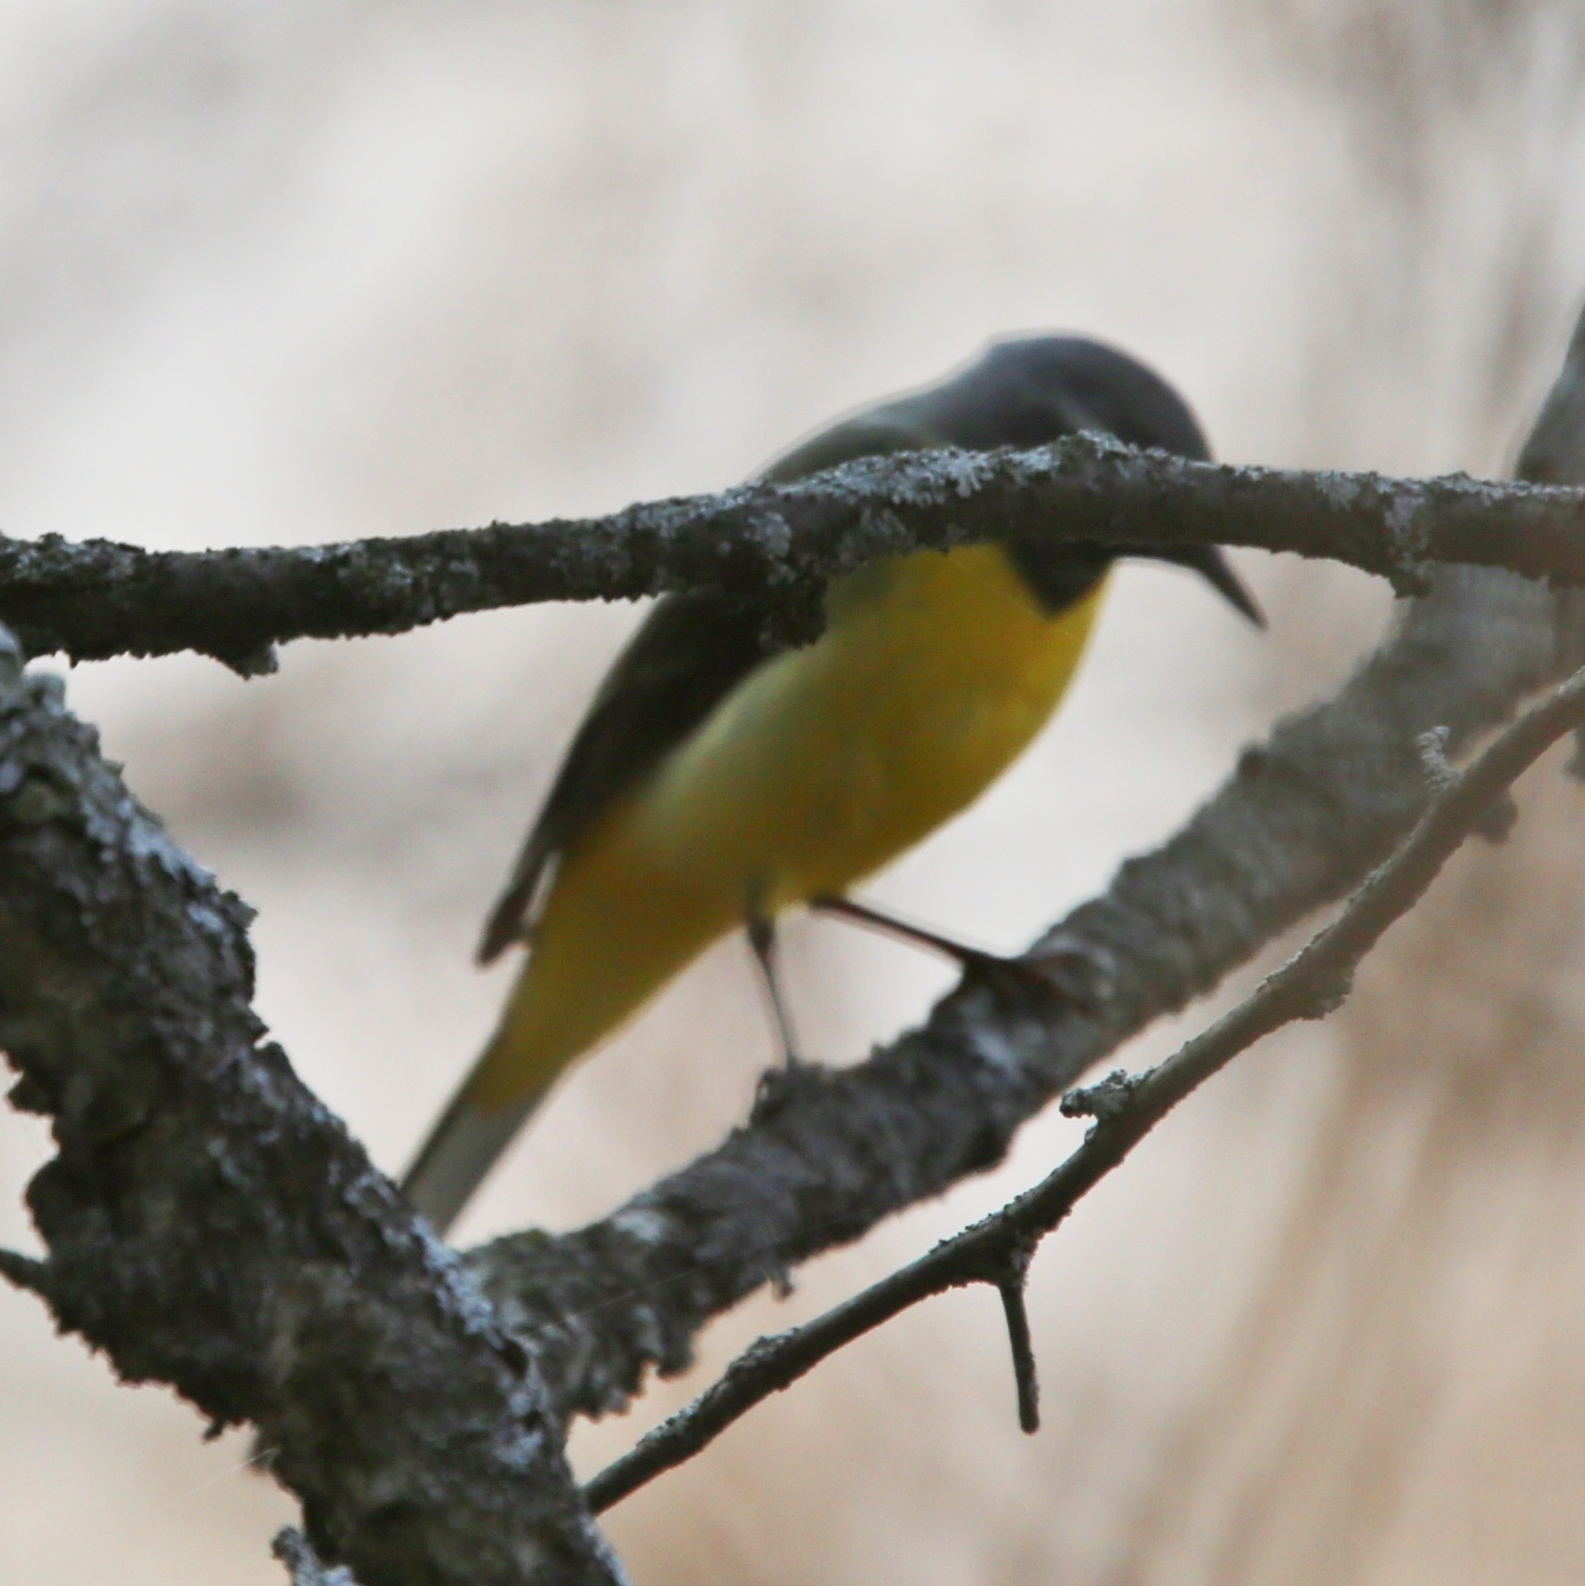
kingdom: Animalia
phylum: Chordata
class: Aves
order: Passeriformes
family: Motacillidae
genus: Motacilla
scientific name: Motacilla cinerea
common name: Grey wagtail
